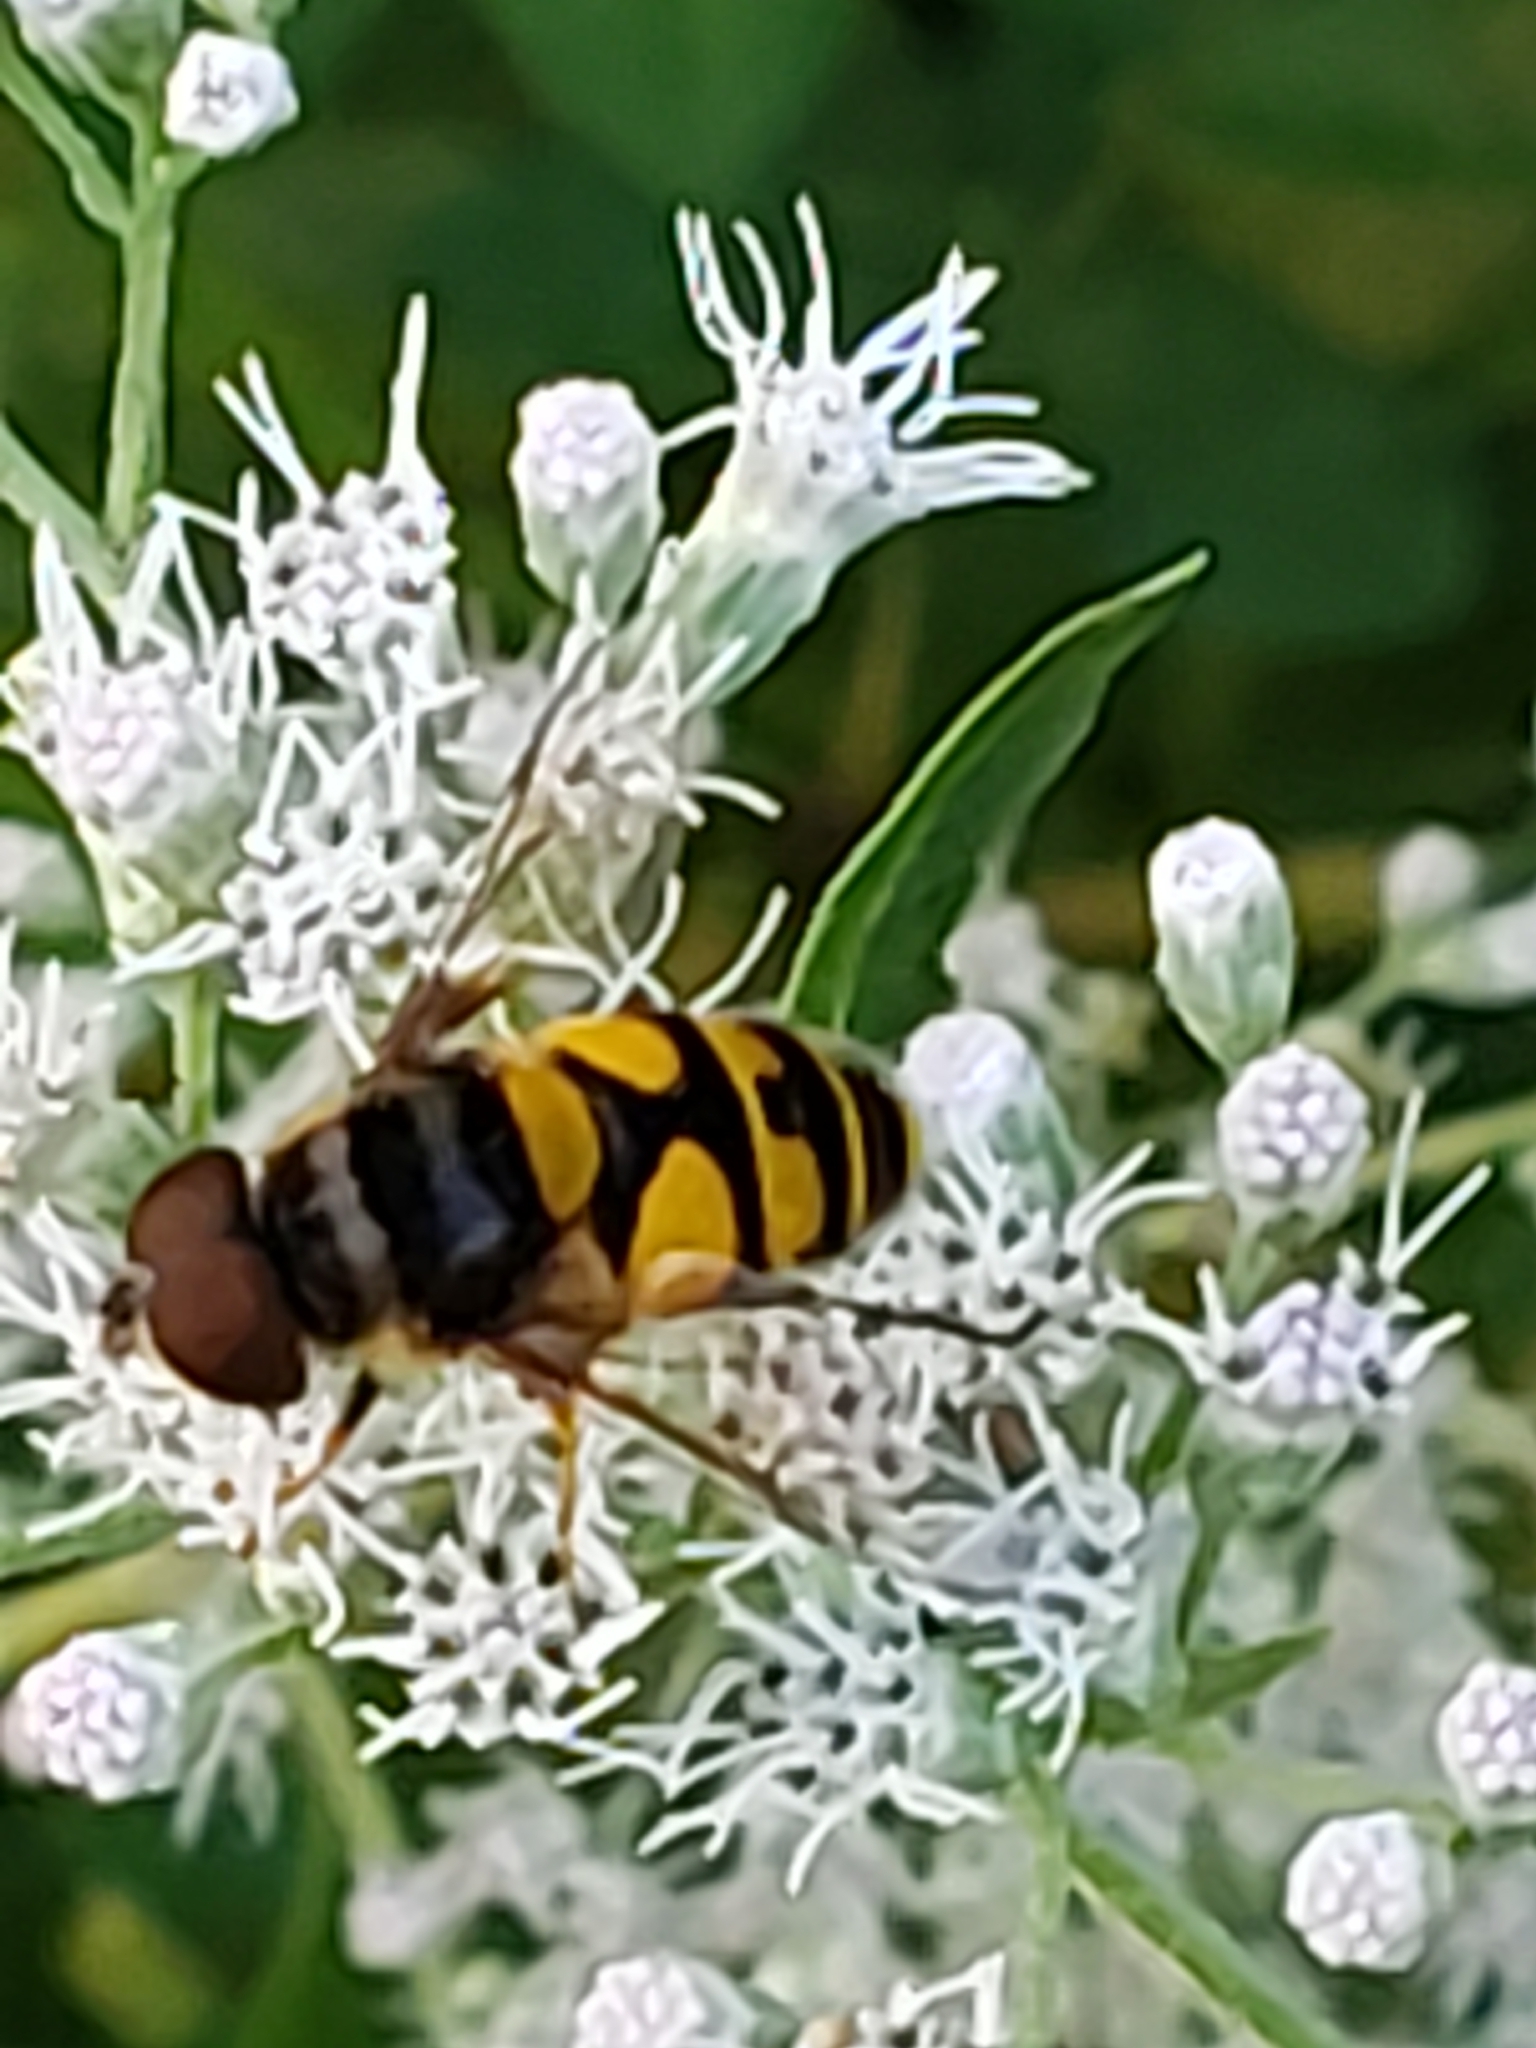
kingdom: Animalia
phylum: Arthropoda
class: Insecta
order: Diptera
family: Syrphidae
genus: Eristalis
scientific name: Eristalis transversa
